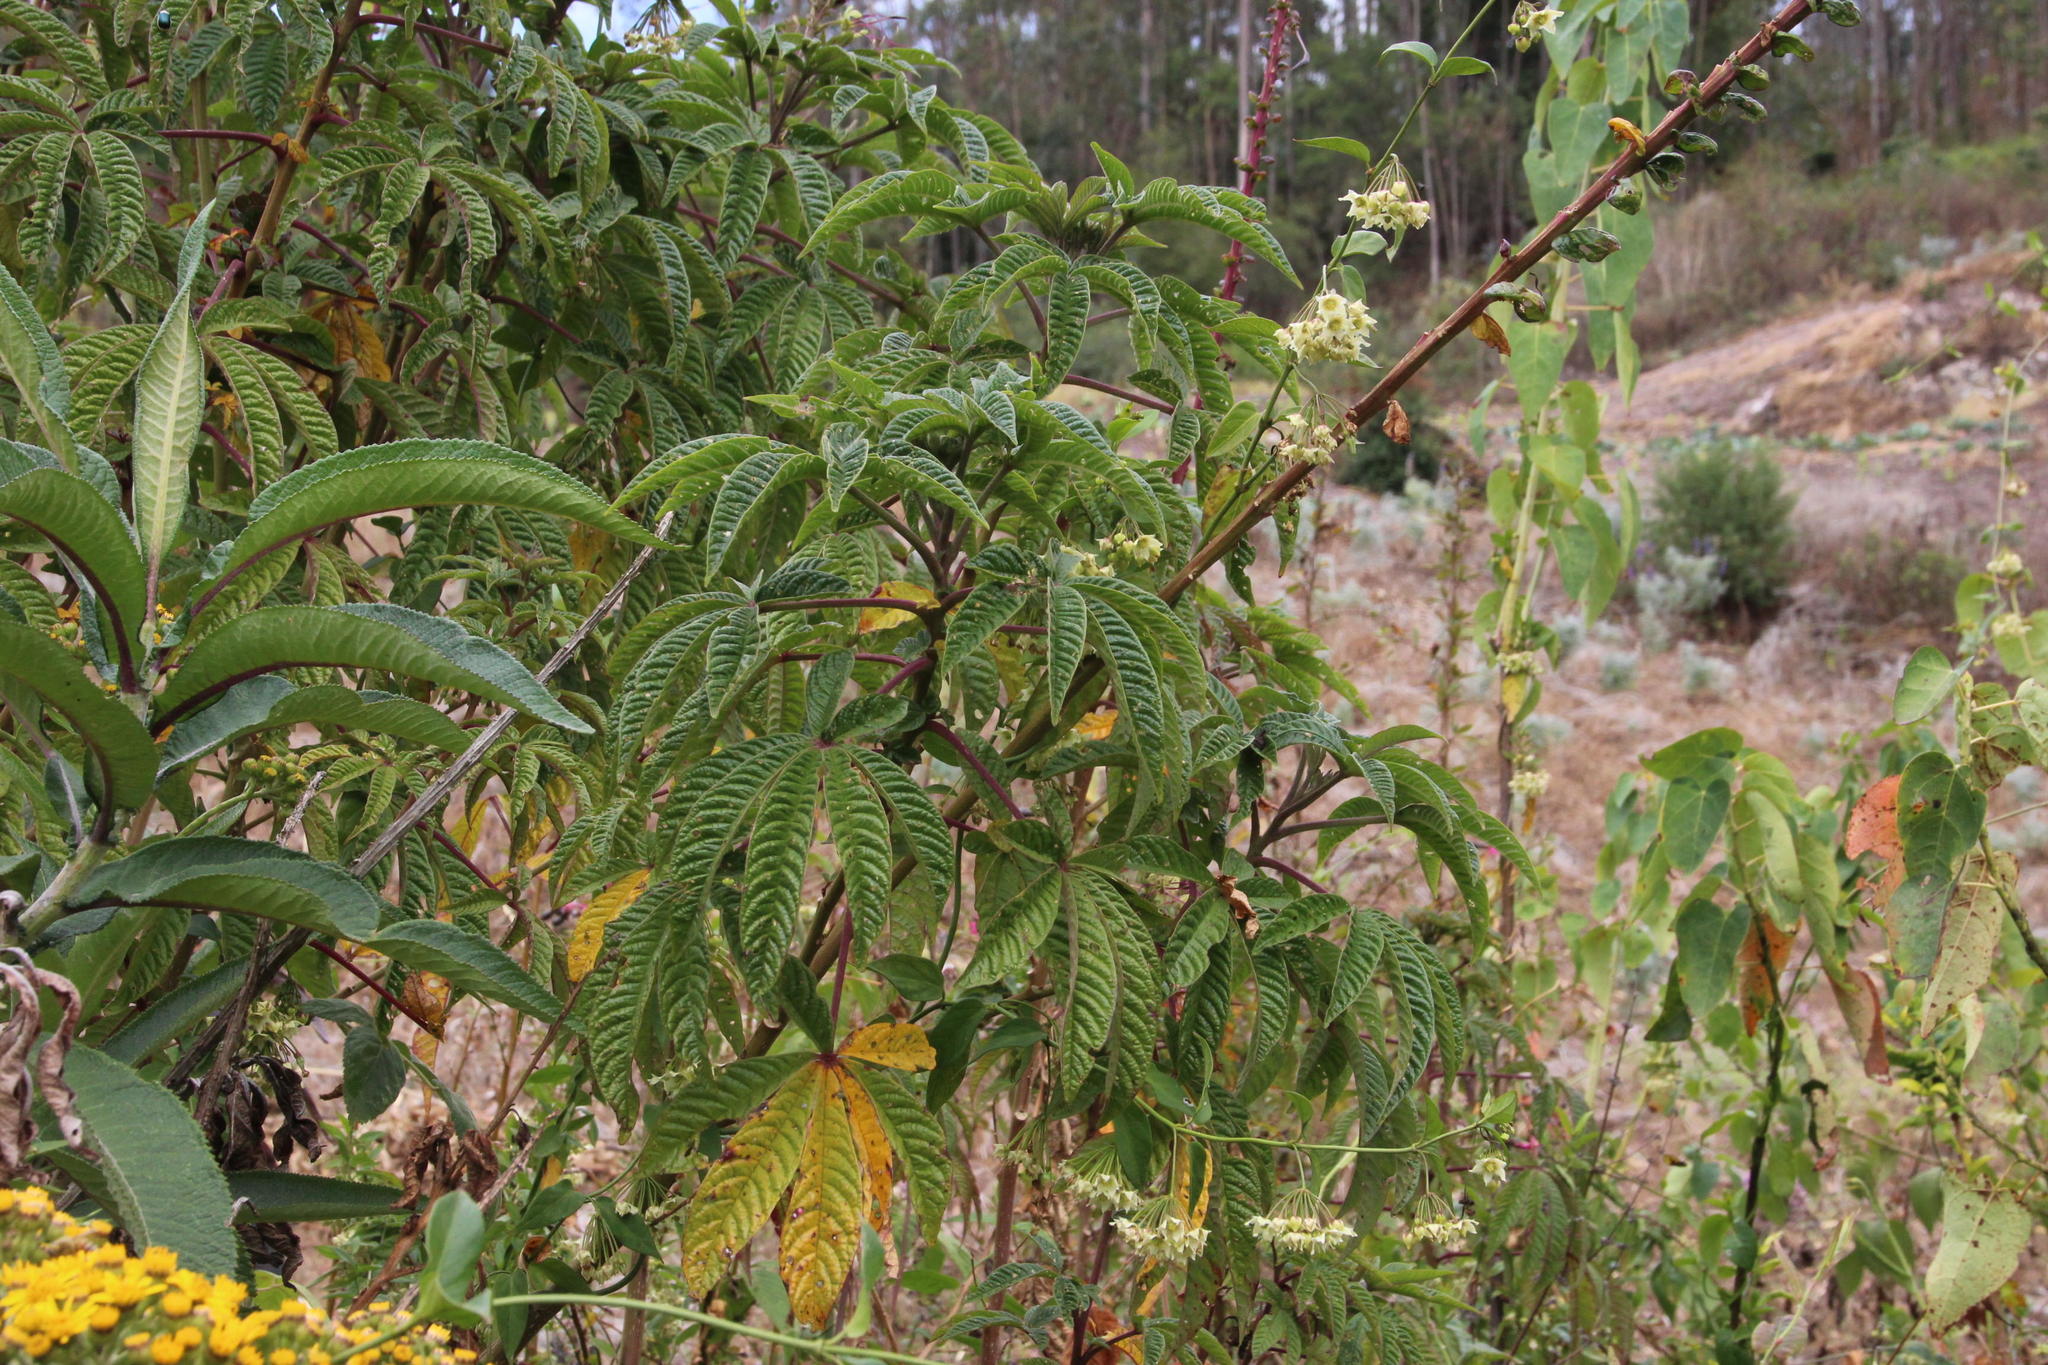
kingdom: Plantae
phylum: Tracheophyta
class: Magnoliopsida
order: Brassicales
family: Cleomaceae
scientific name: Cleomaceae
